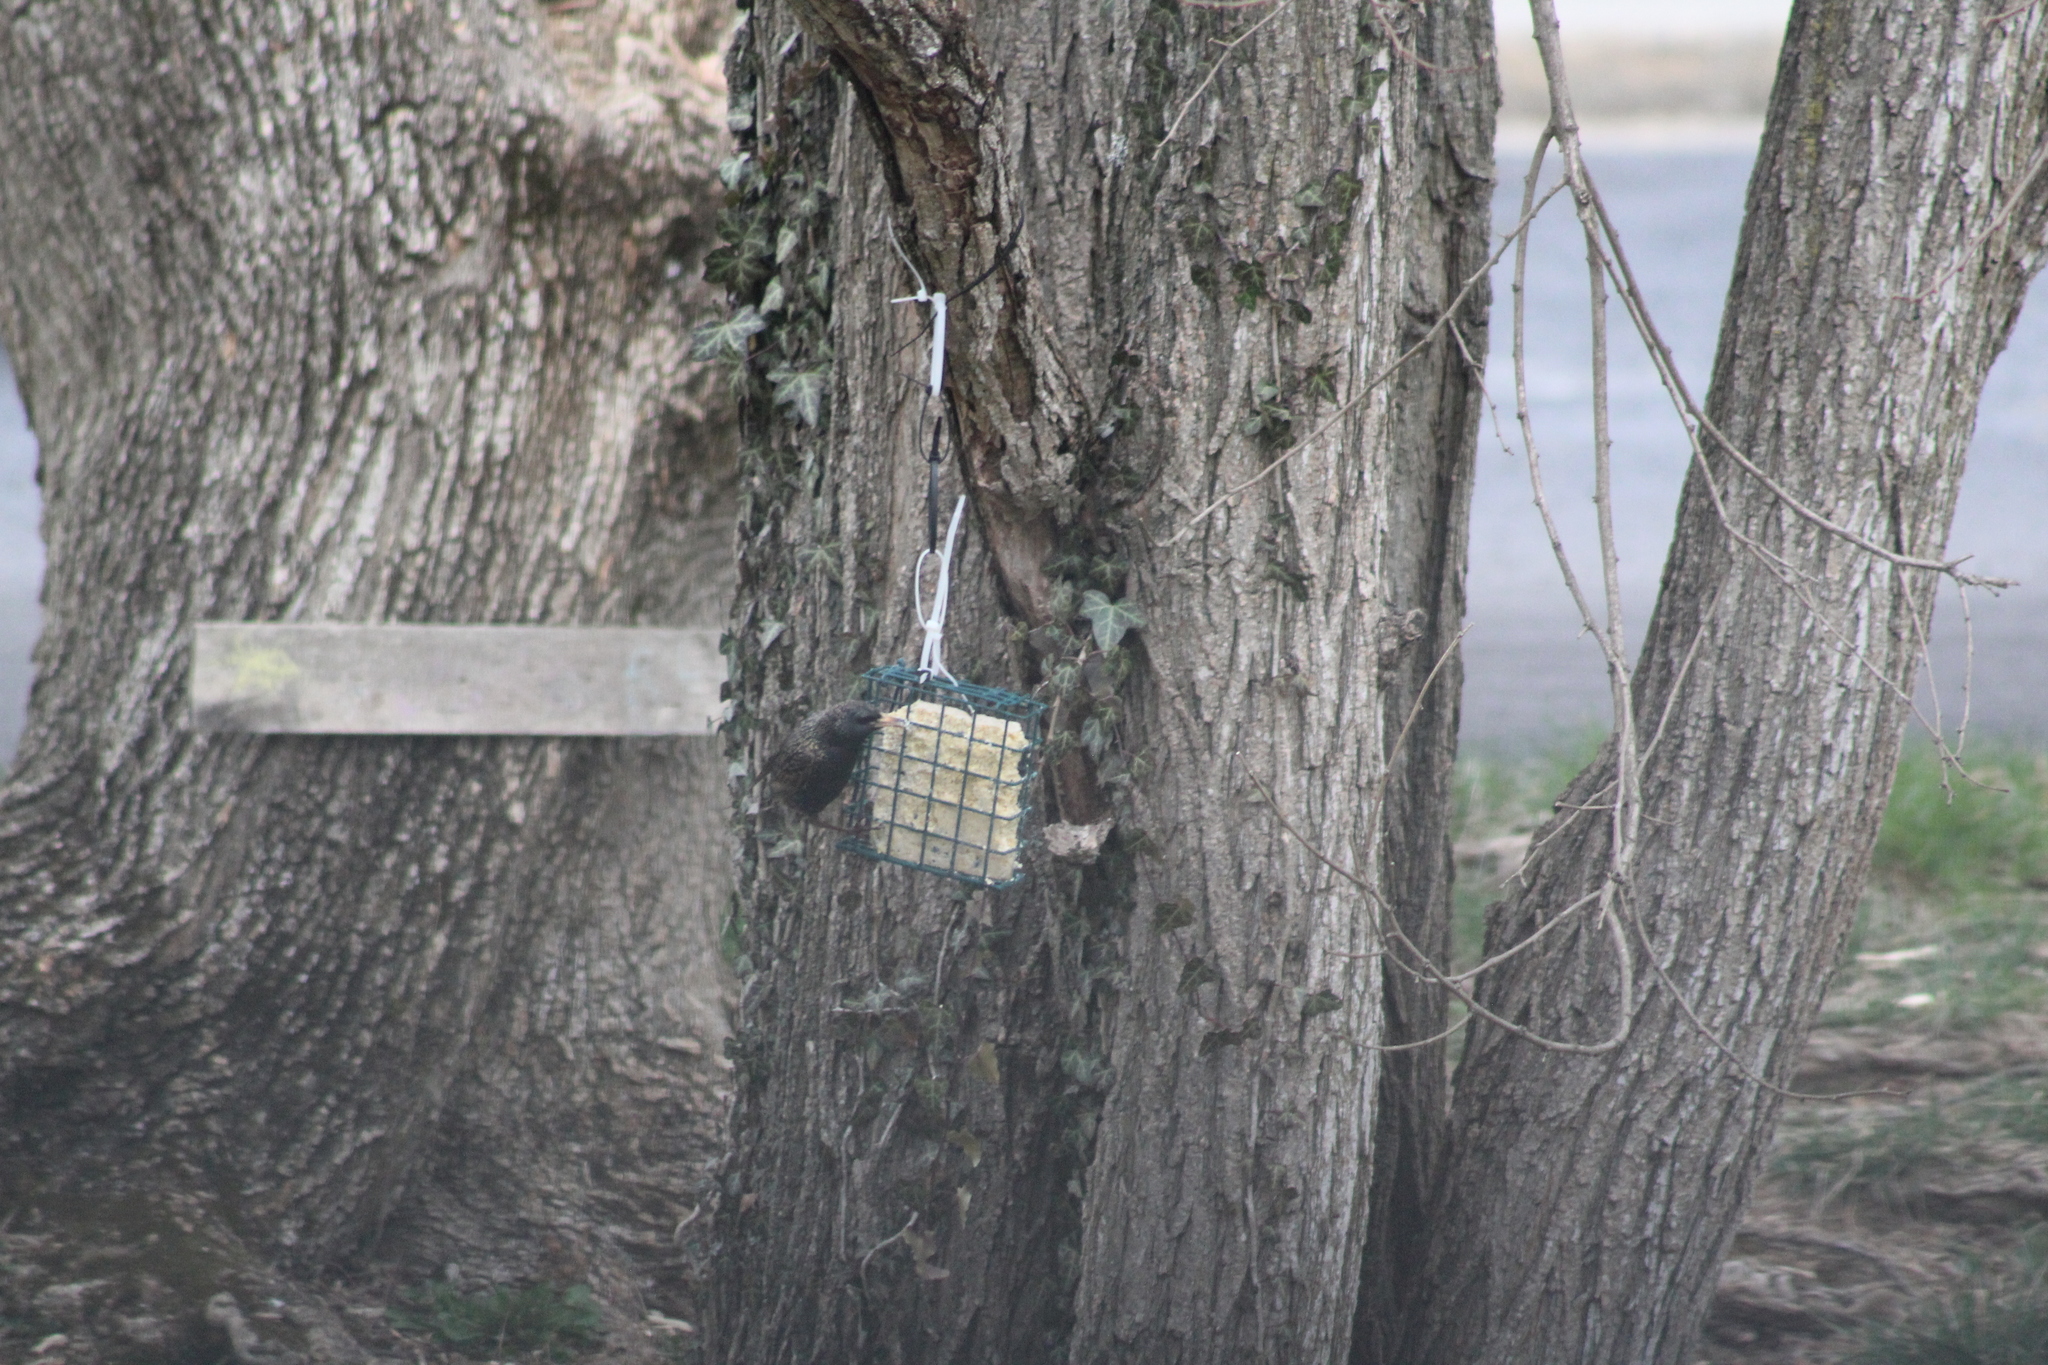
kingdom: Animalia
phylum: Chordata
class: Aves
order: Passeriformes
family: Sturnidae
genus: Sturnus
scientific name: Sturnus vulgaris
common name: Common starling
